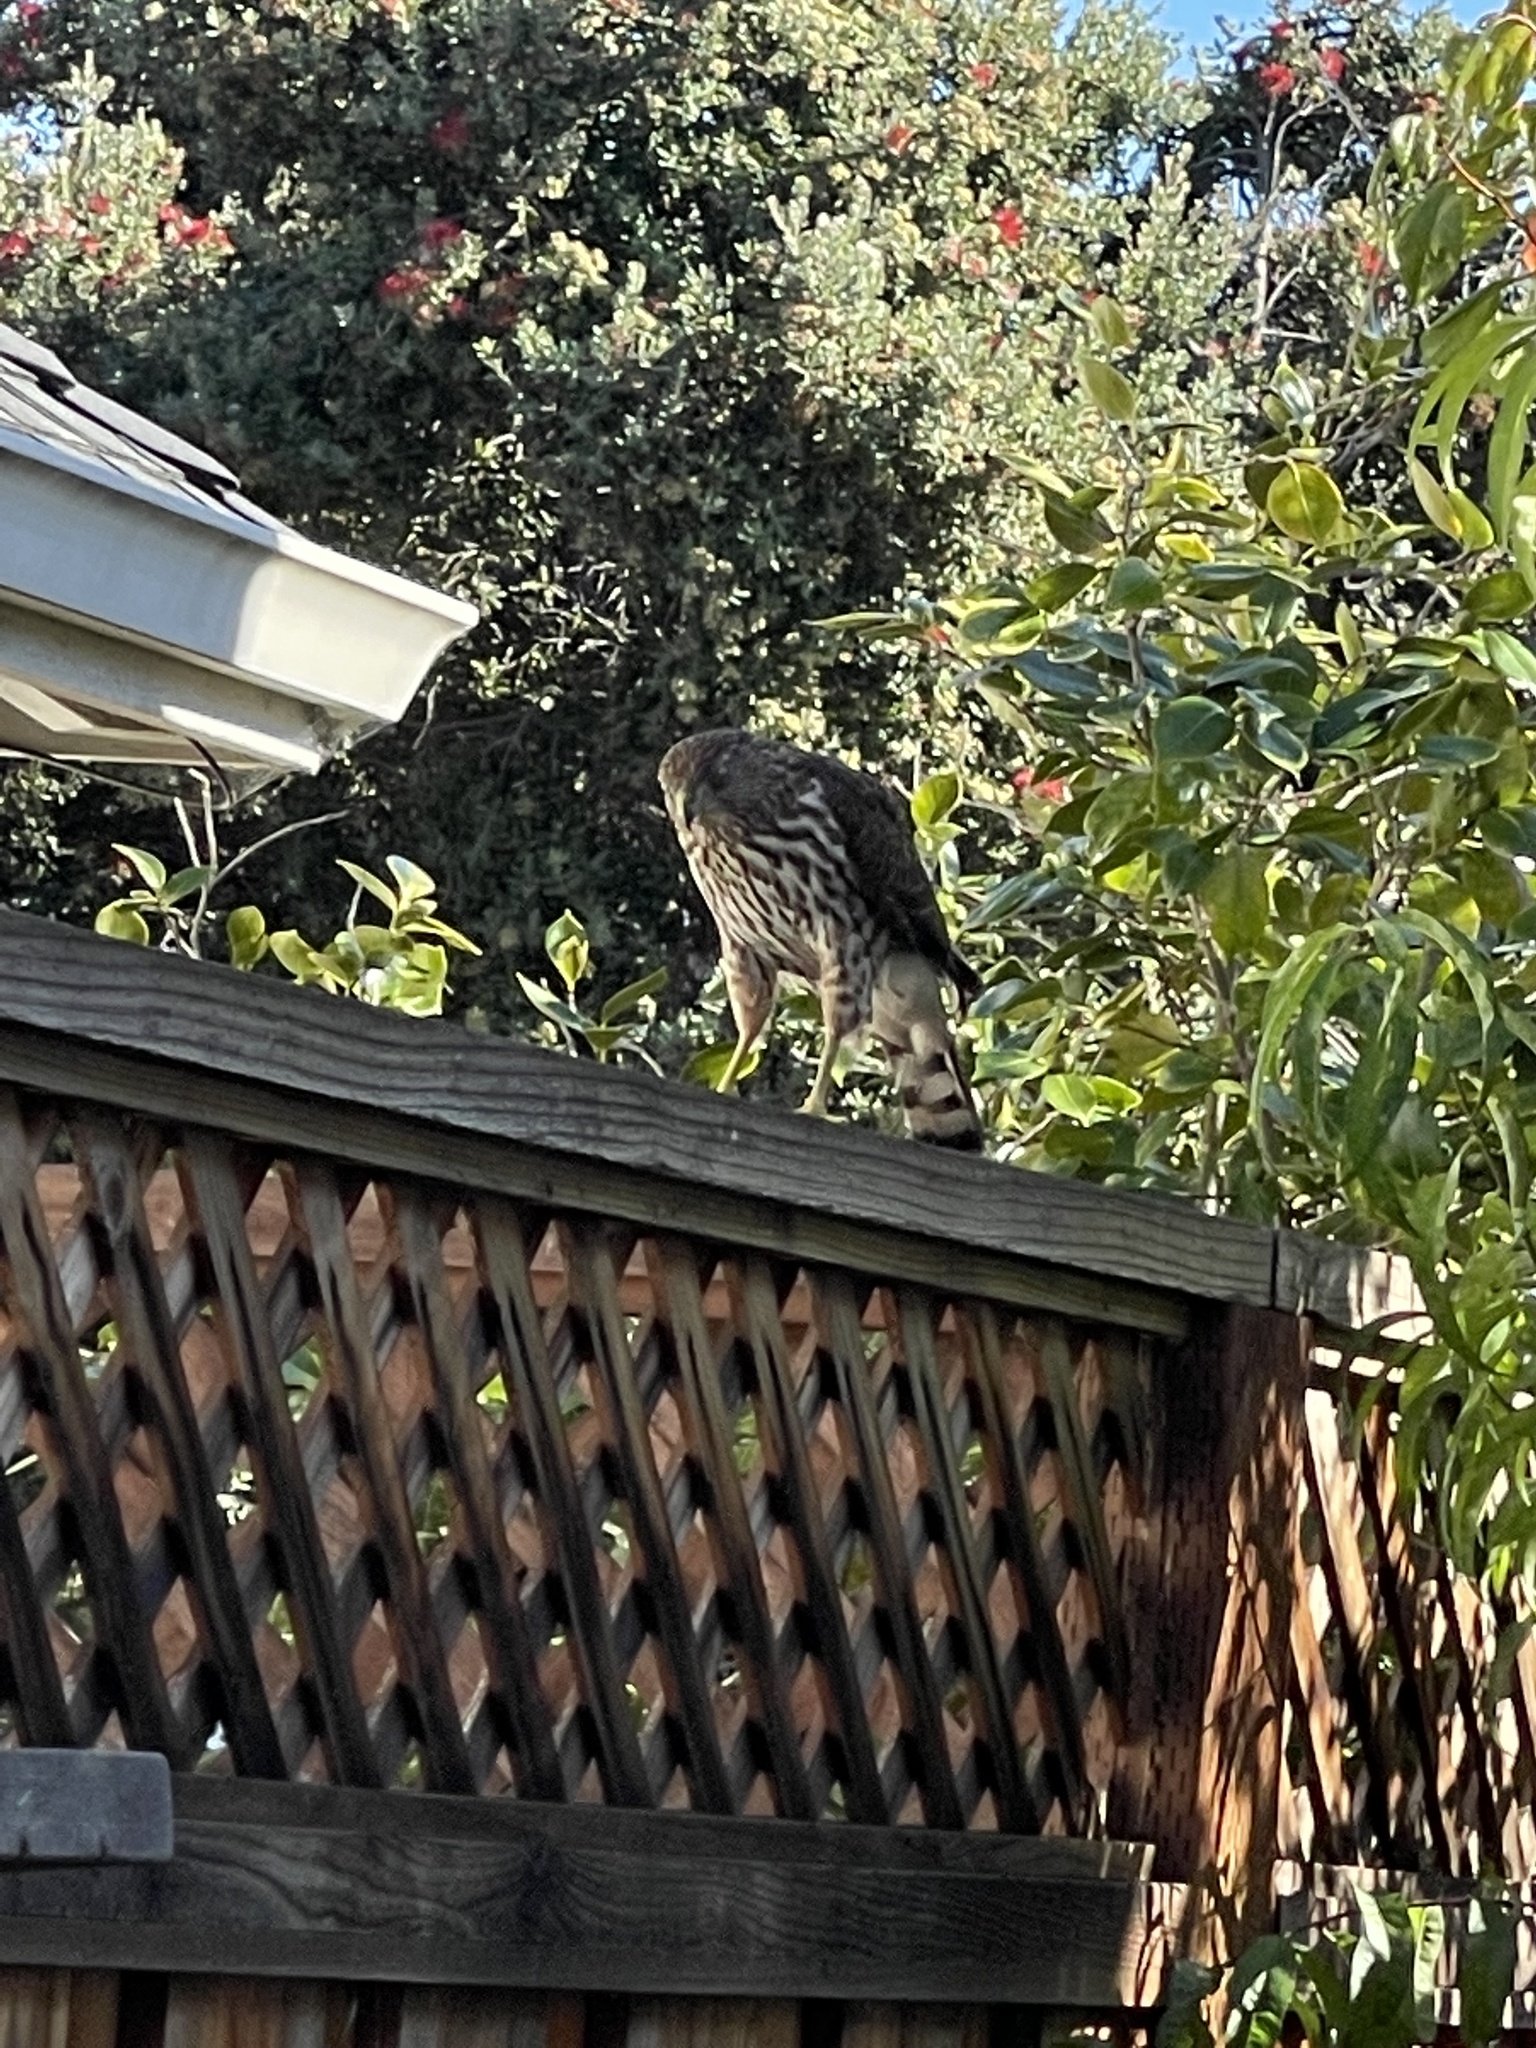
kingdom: Animalia
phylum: Chordata
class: Aves
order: Accipitriformes
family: Accipitridae
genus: Accipiter
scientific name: Accipiter cooperii
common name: Cooper's hawk
